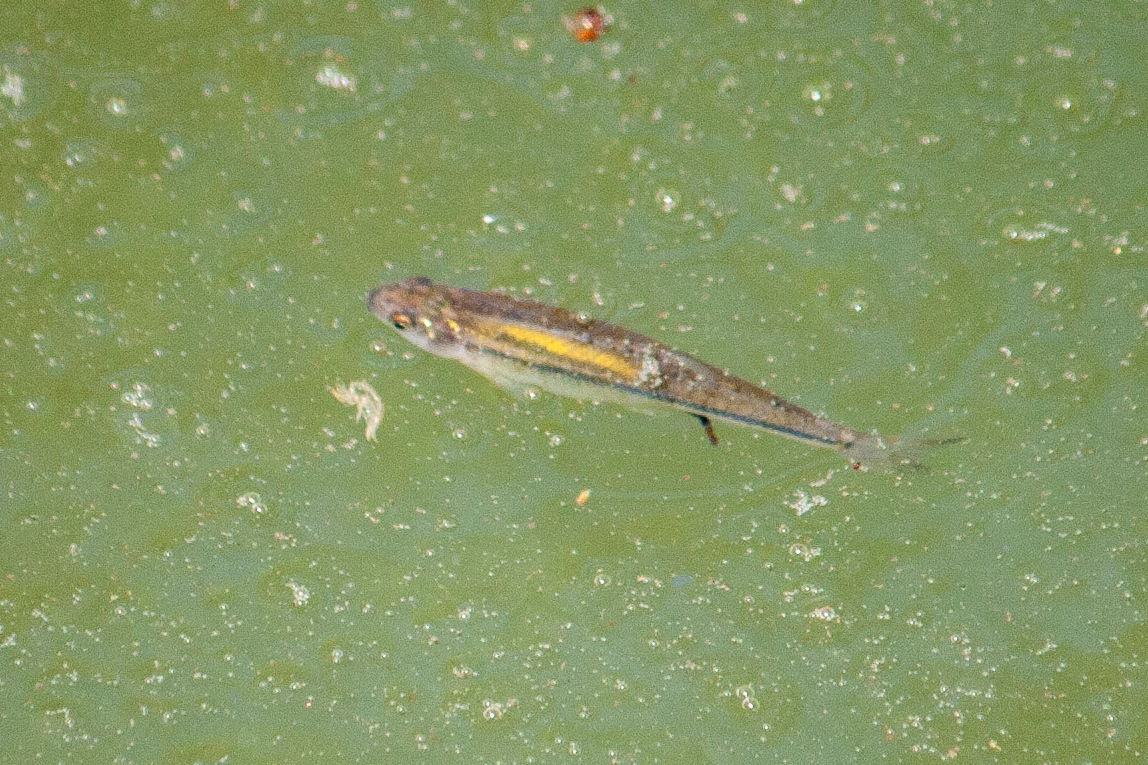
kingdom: Animalia
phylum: Chordata
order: Cypriniformes
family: Cyprinidae
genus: Pimephales
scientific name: Pimephales promelas
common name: Fathead minnow
